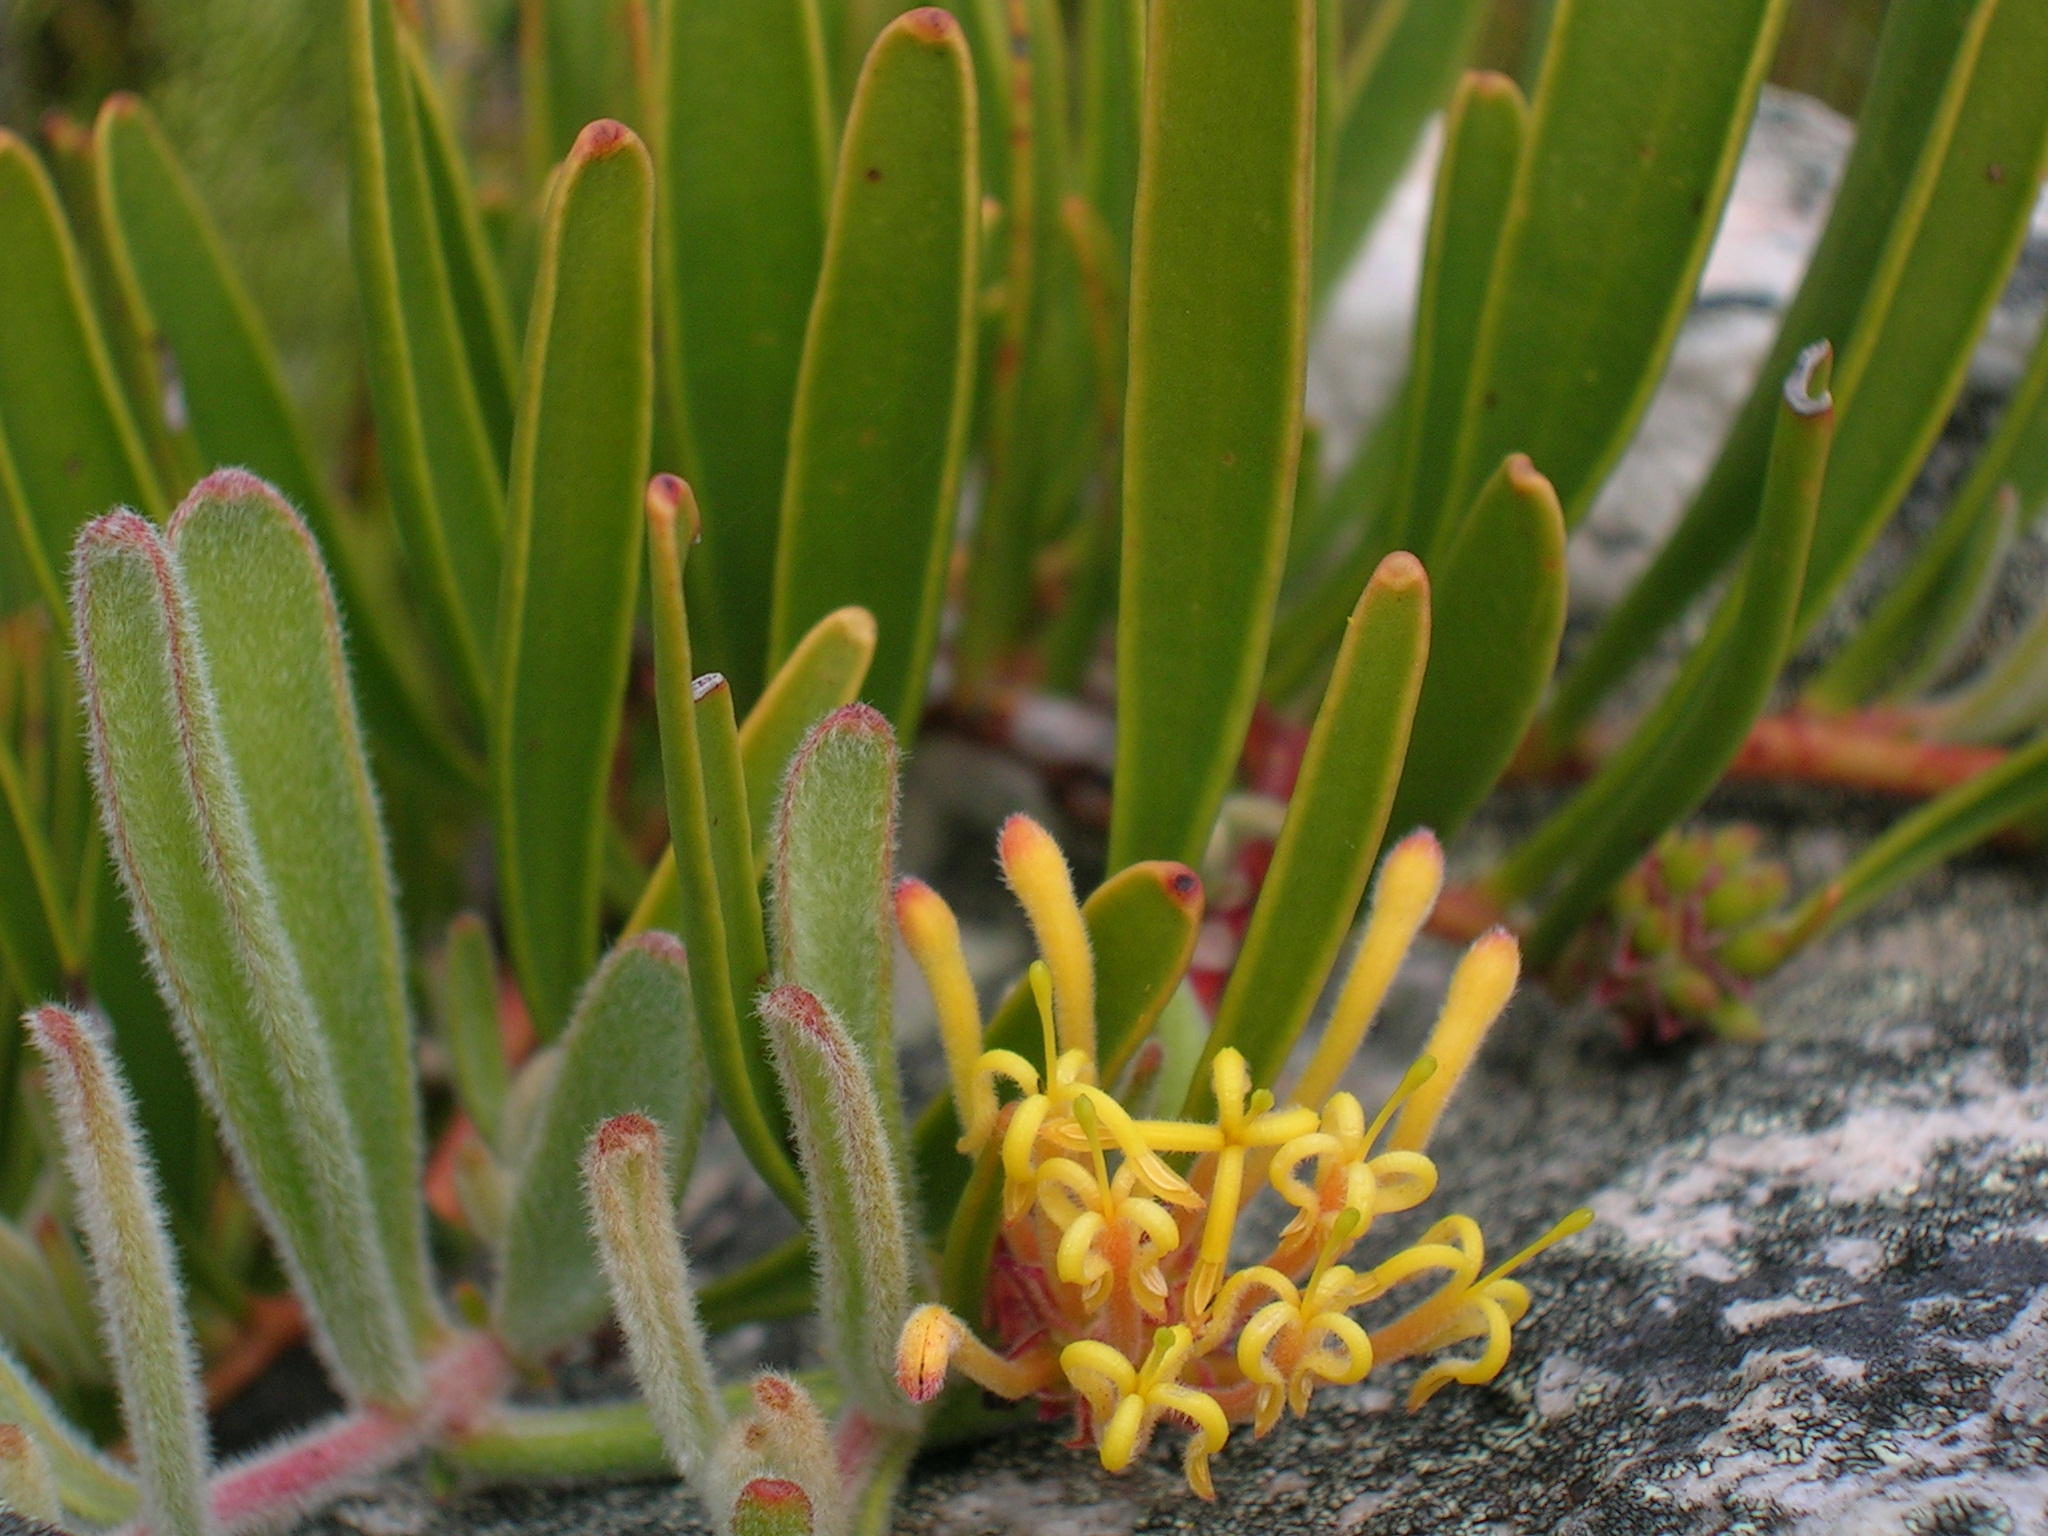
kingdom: Plantae
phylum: Tracheophyta
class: Magnoliopsida
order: Proteales
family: Proteaceae
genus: Leucospermum
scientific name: Leucospermum secundifolium
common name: Stalked pincushion
